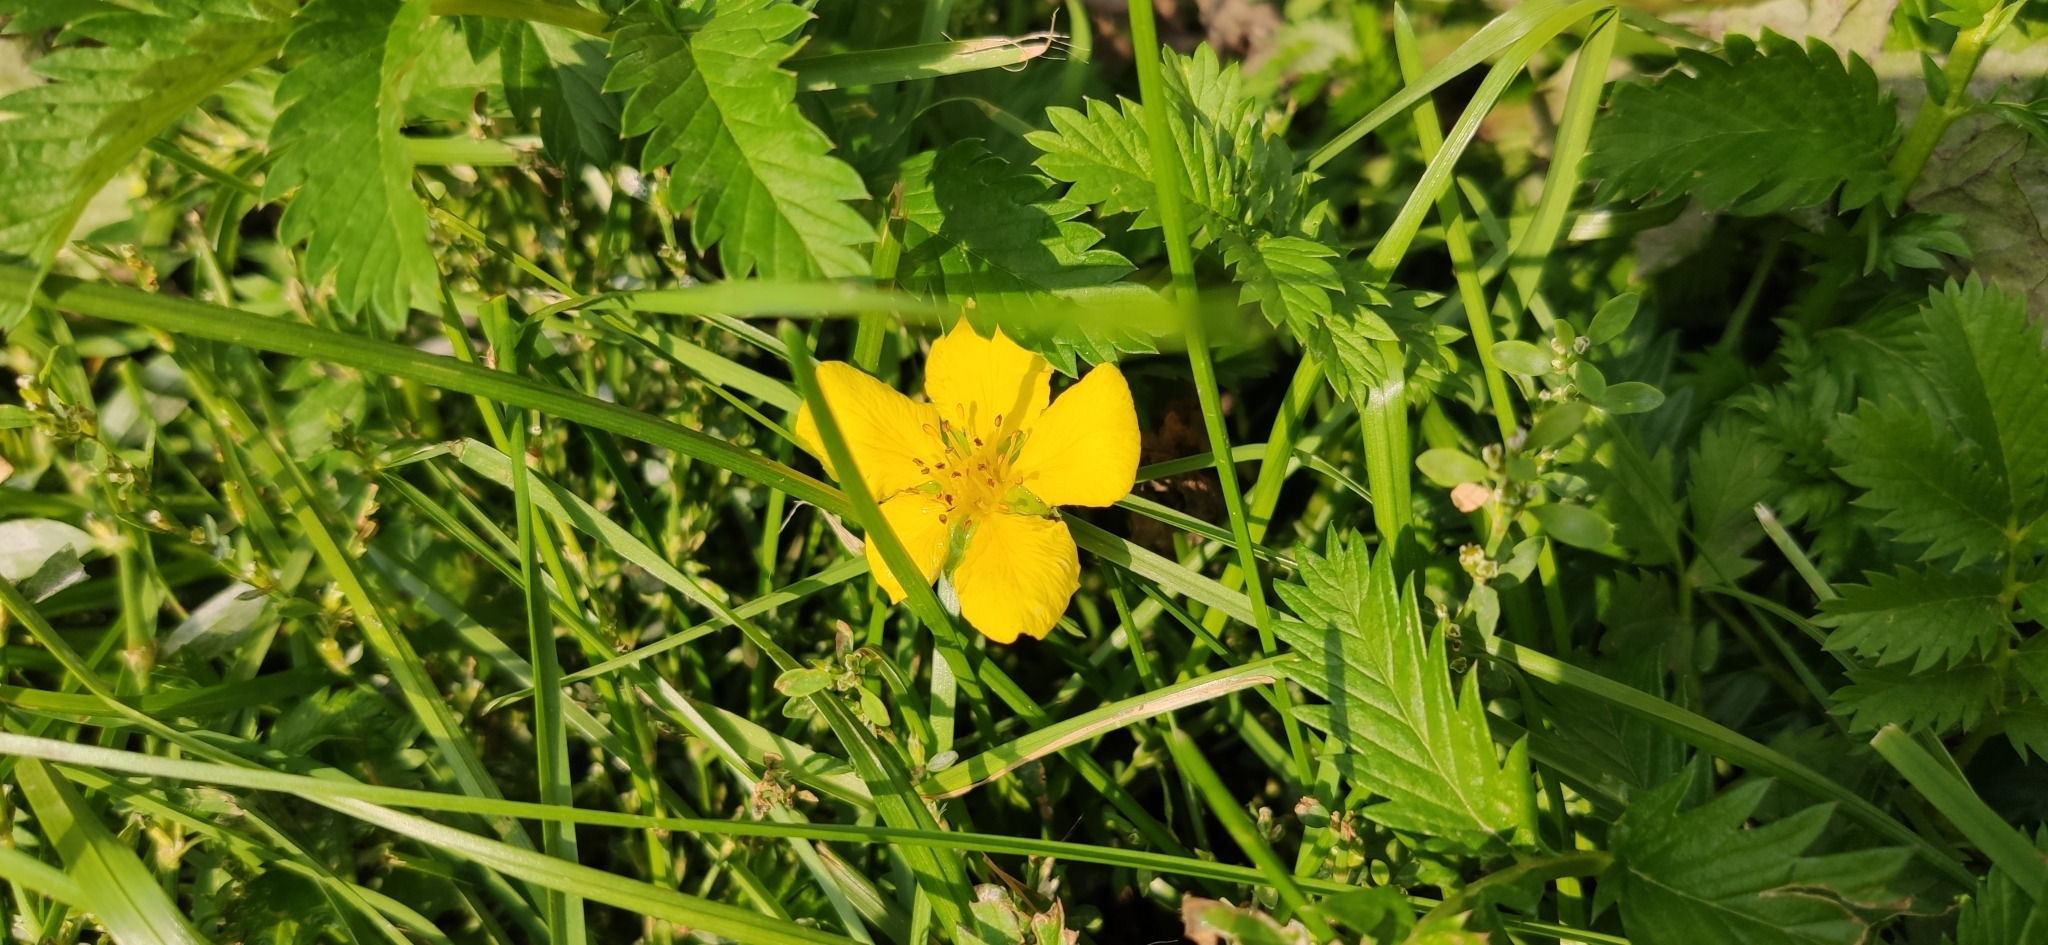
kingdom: Plantae
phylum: Tracheophyta
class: Magnoliopsida
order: Rosales
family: Rosaceae
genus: Argentina
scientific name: Argentina anserina
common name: Common silverweed
